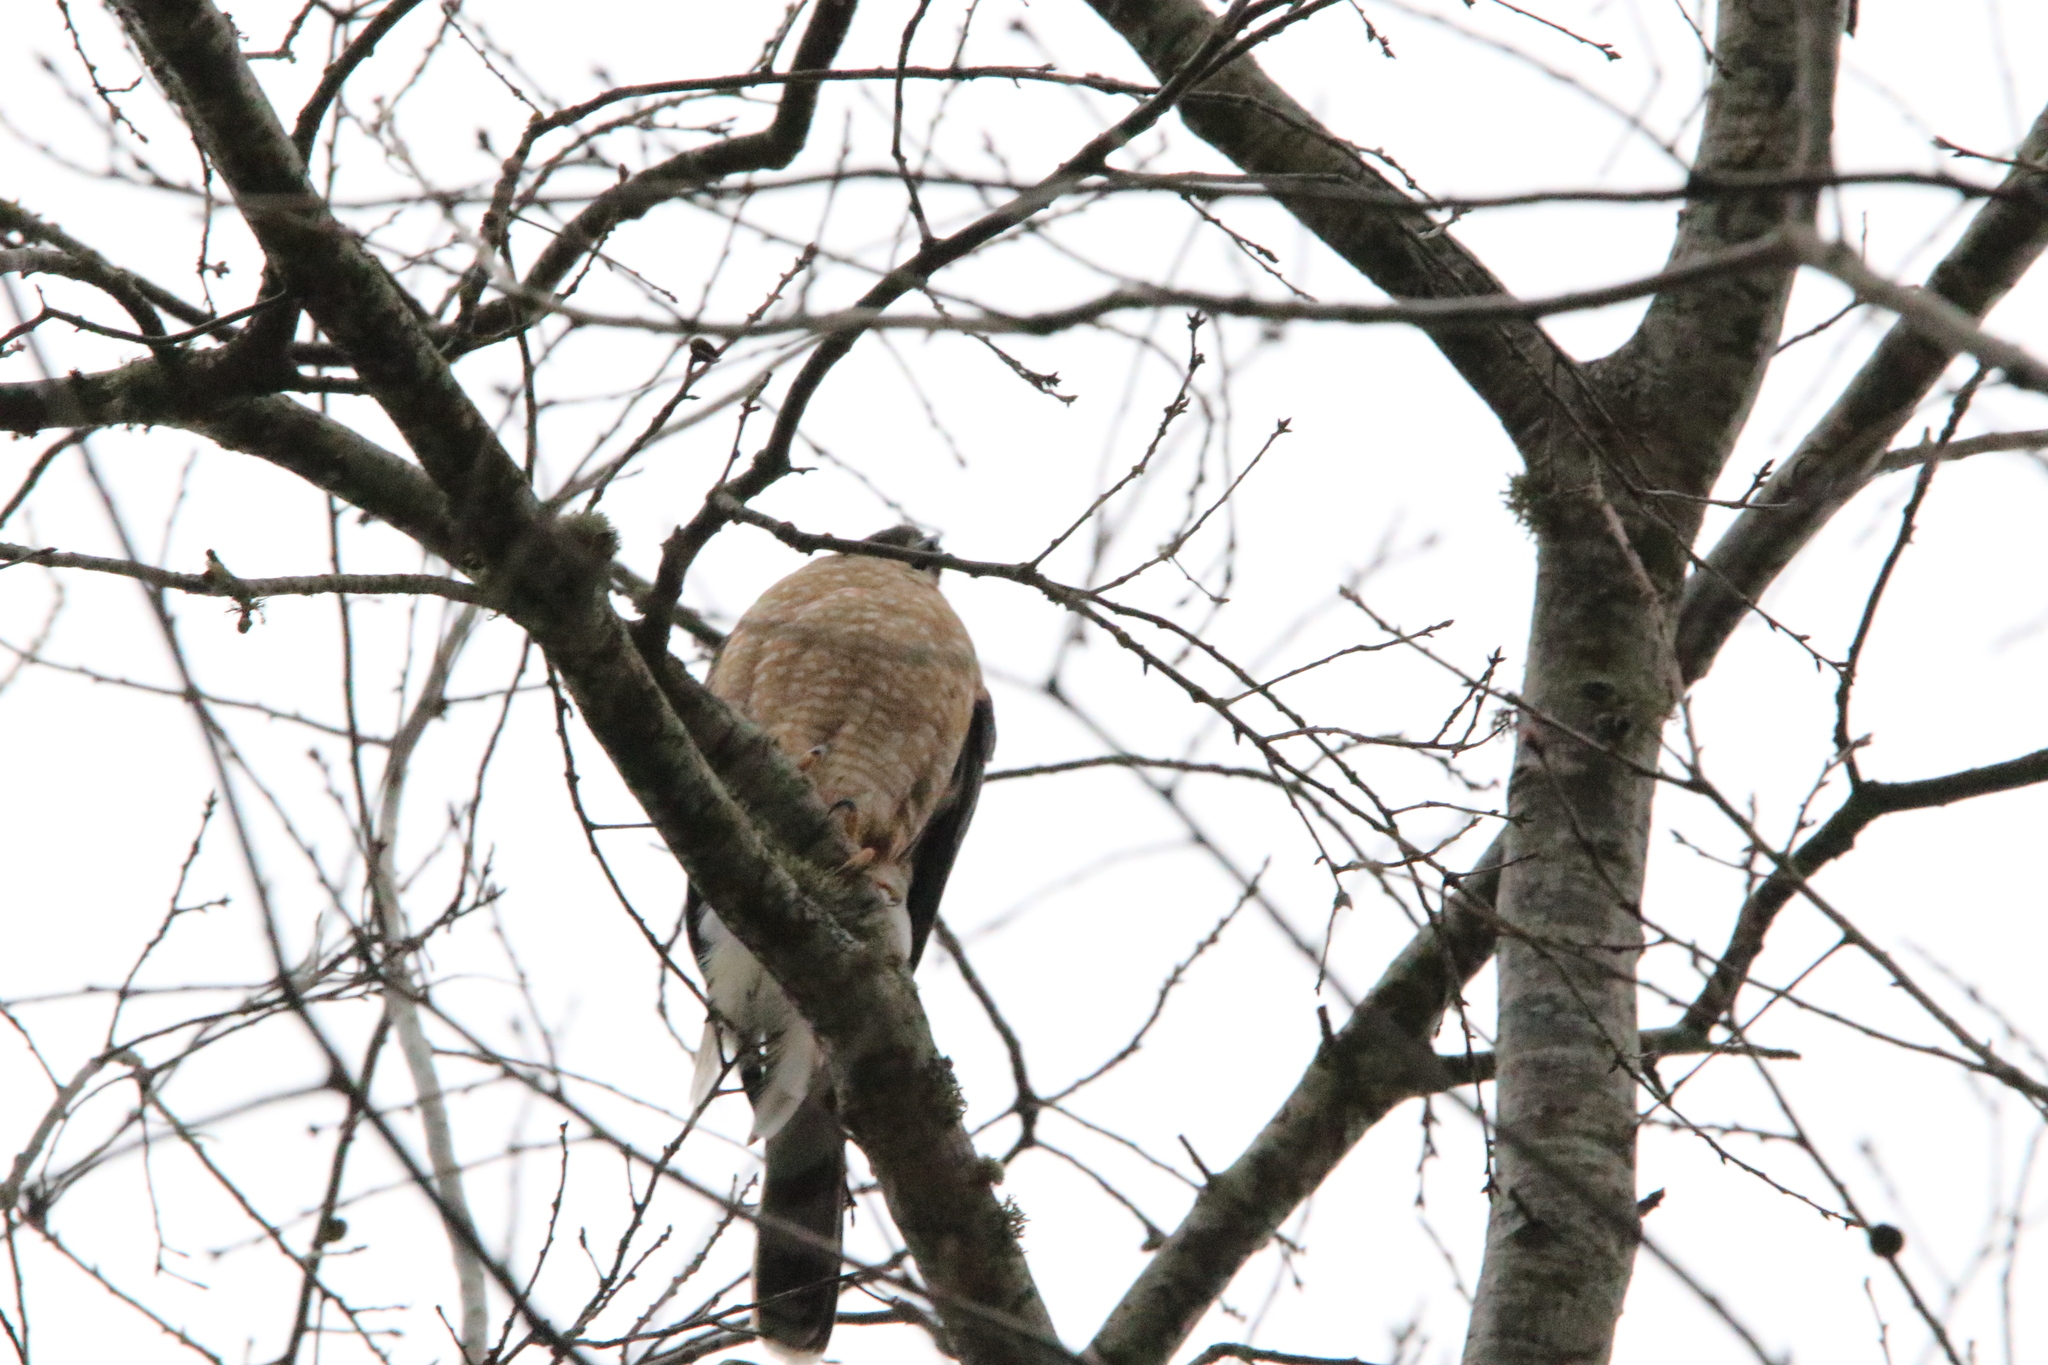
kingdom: Animalia
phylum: Chordata
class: Aves
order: Accipitriformes
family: Accipitridae
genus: Accipiter
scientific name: Accipiter cooperii
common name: Cooper's hawk
